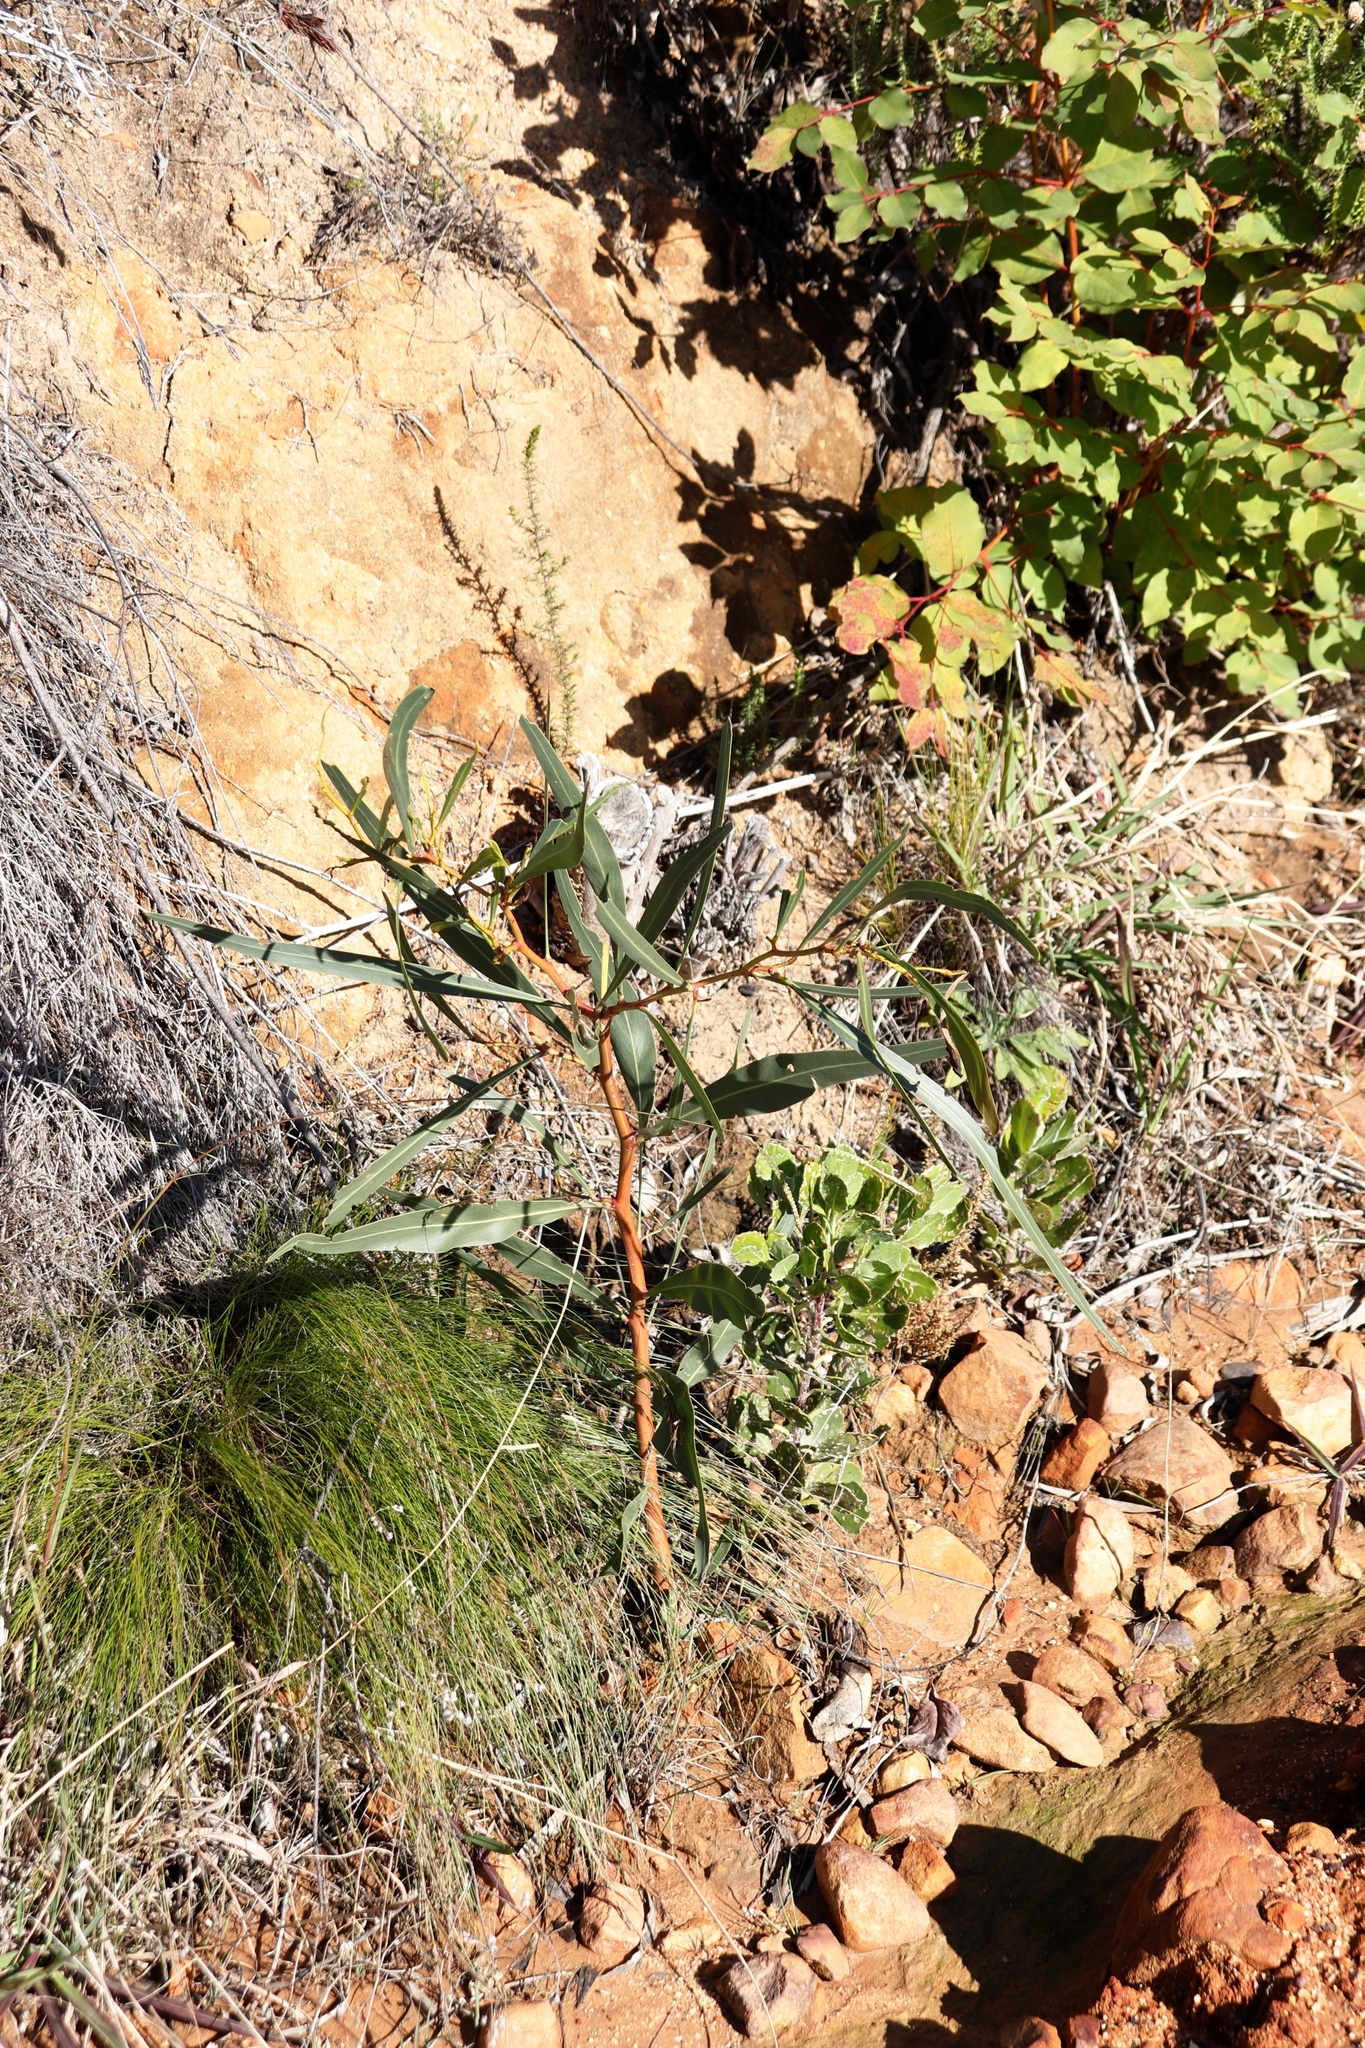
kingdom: Plantae
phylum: Tracheophyta
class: Magnoliopsida
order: Fabales
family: Fabaceae
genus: Acacia
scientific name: Acacia saligna
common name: Orange wattle
